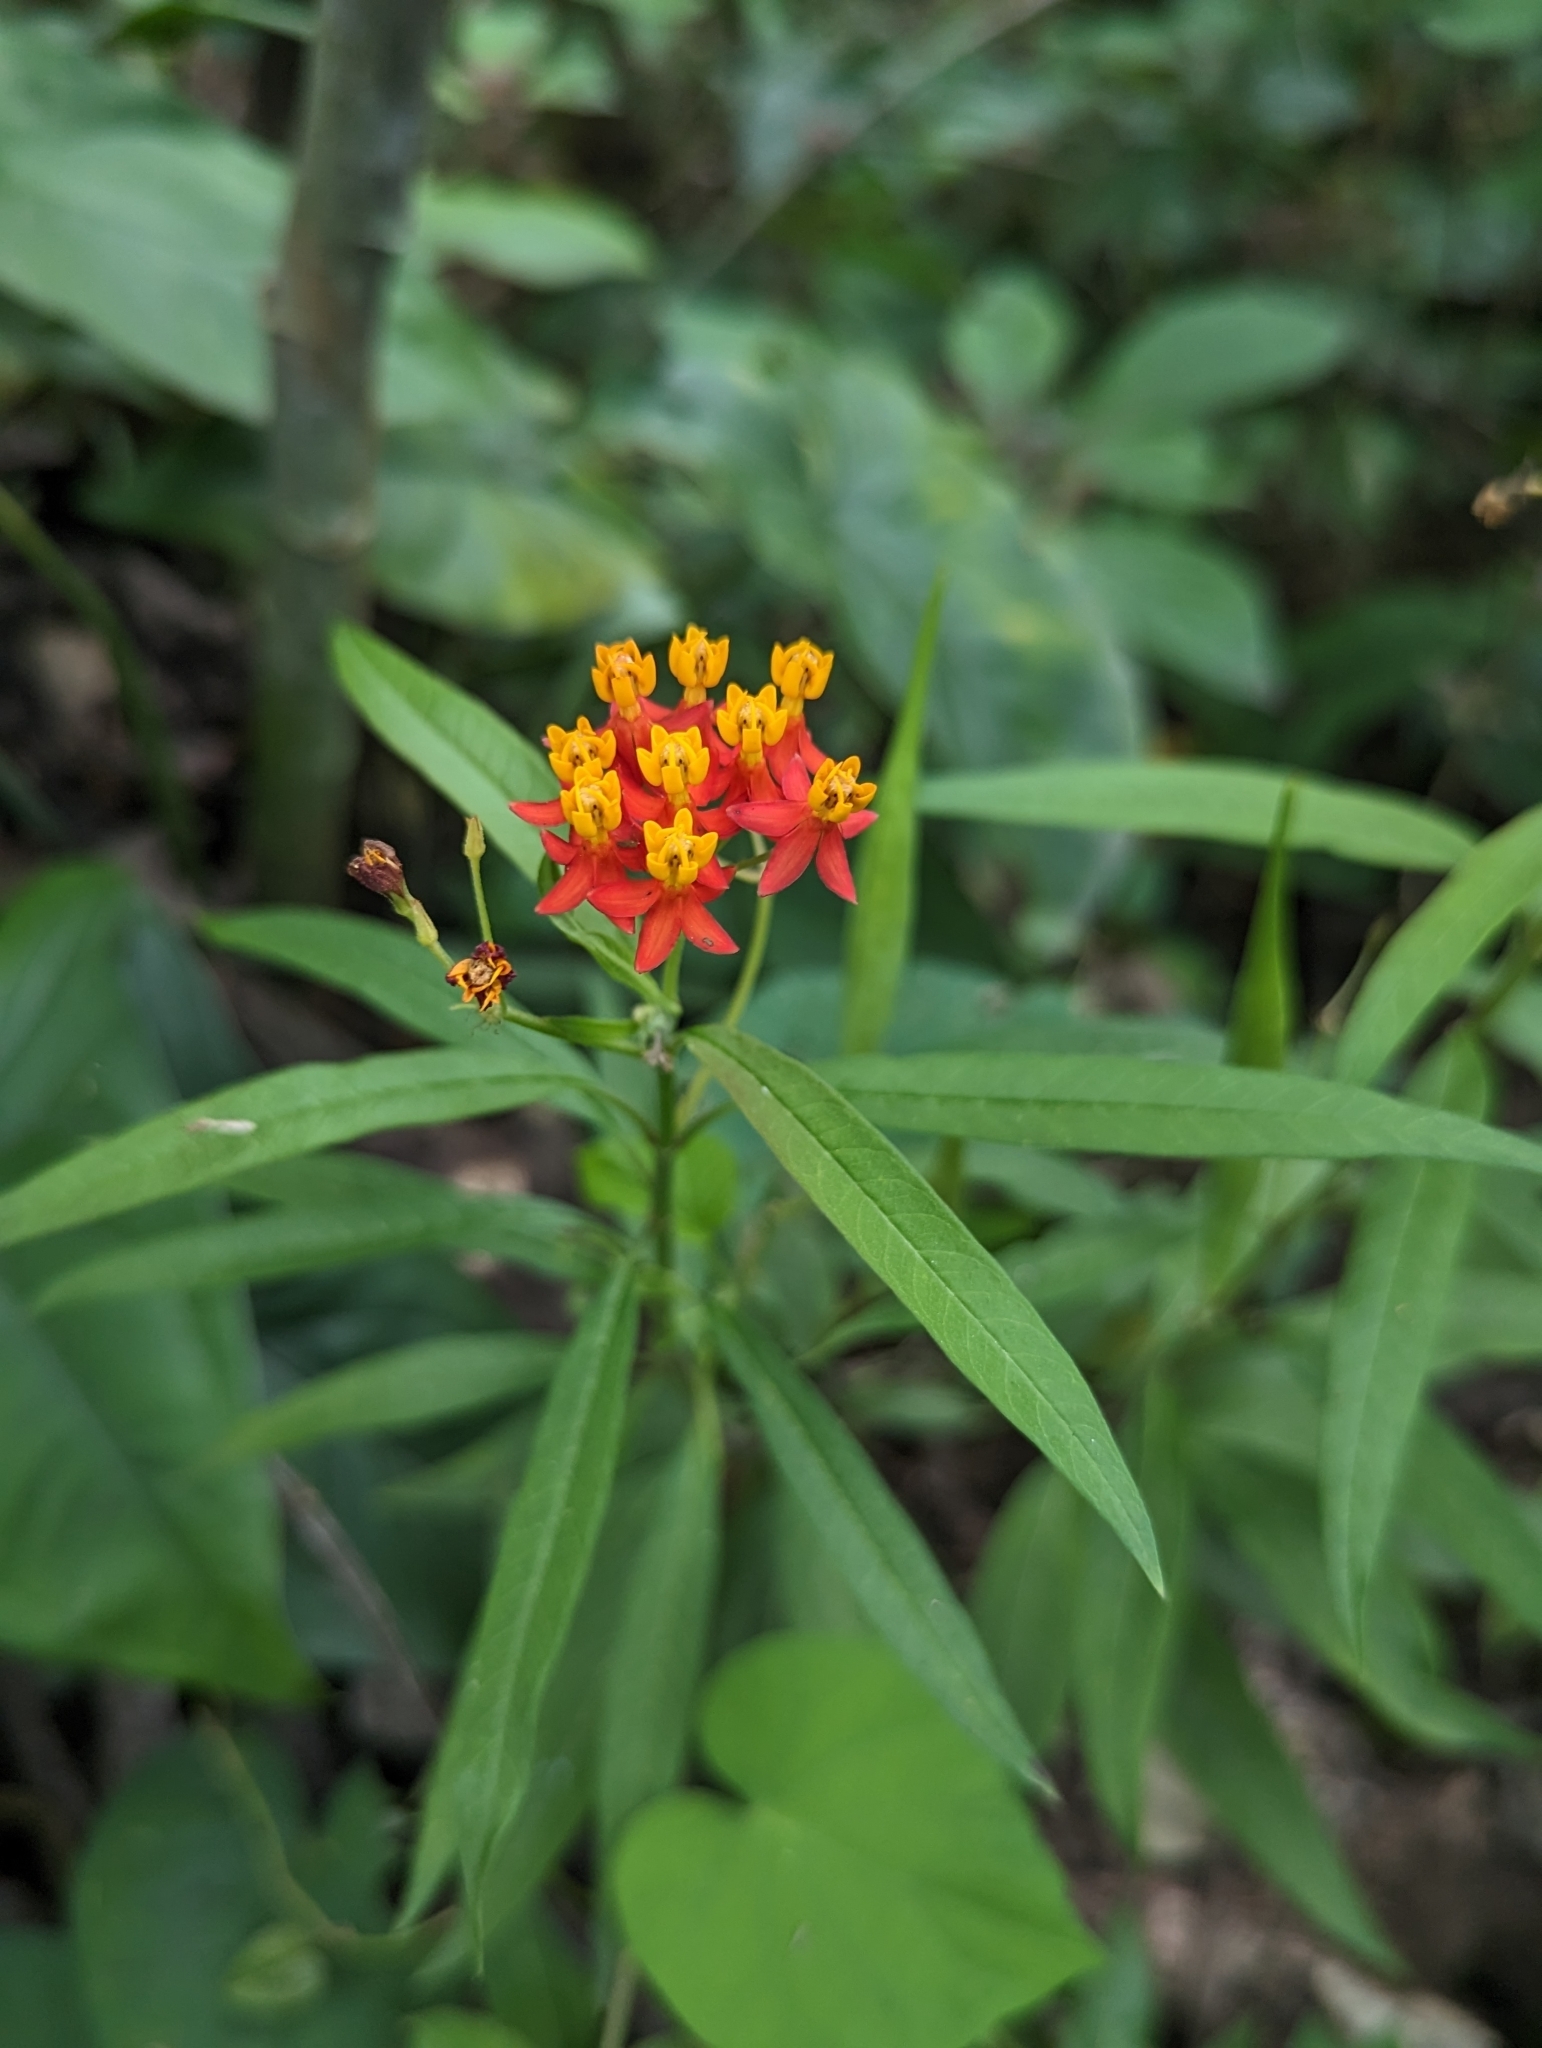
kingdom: Plantae
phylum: Tracheophyta
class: Magnoliopsida
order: Gentianales
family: Apocynaceae
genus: Asclepias
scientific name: Asclepias curassavica
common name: Bloodflower
